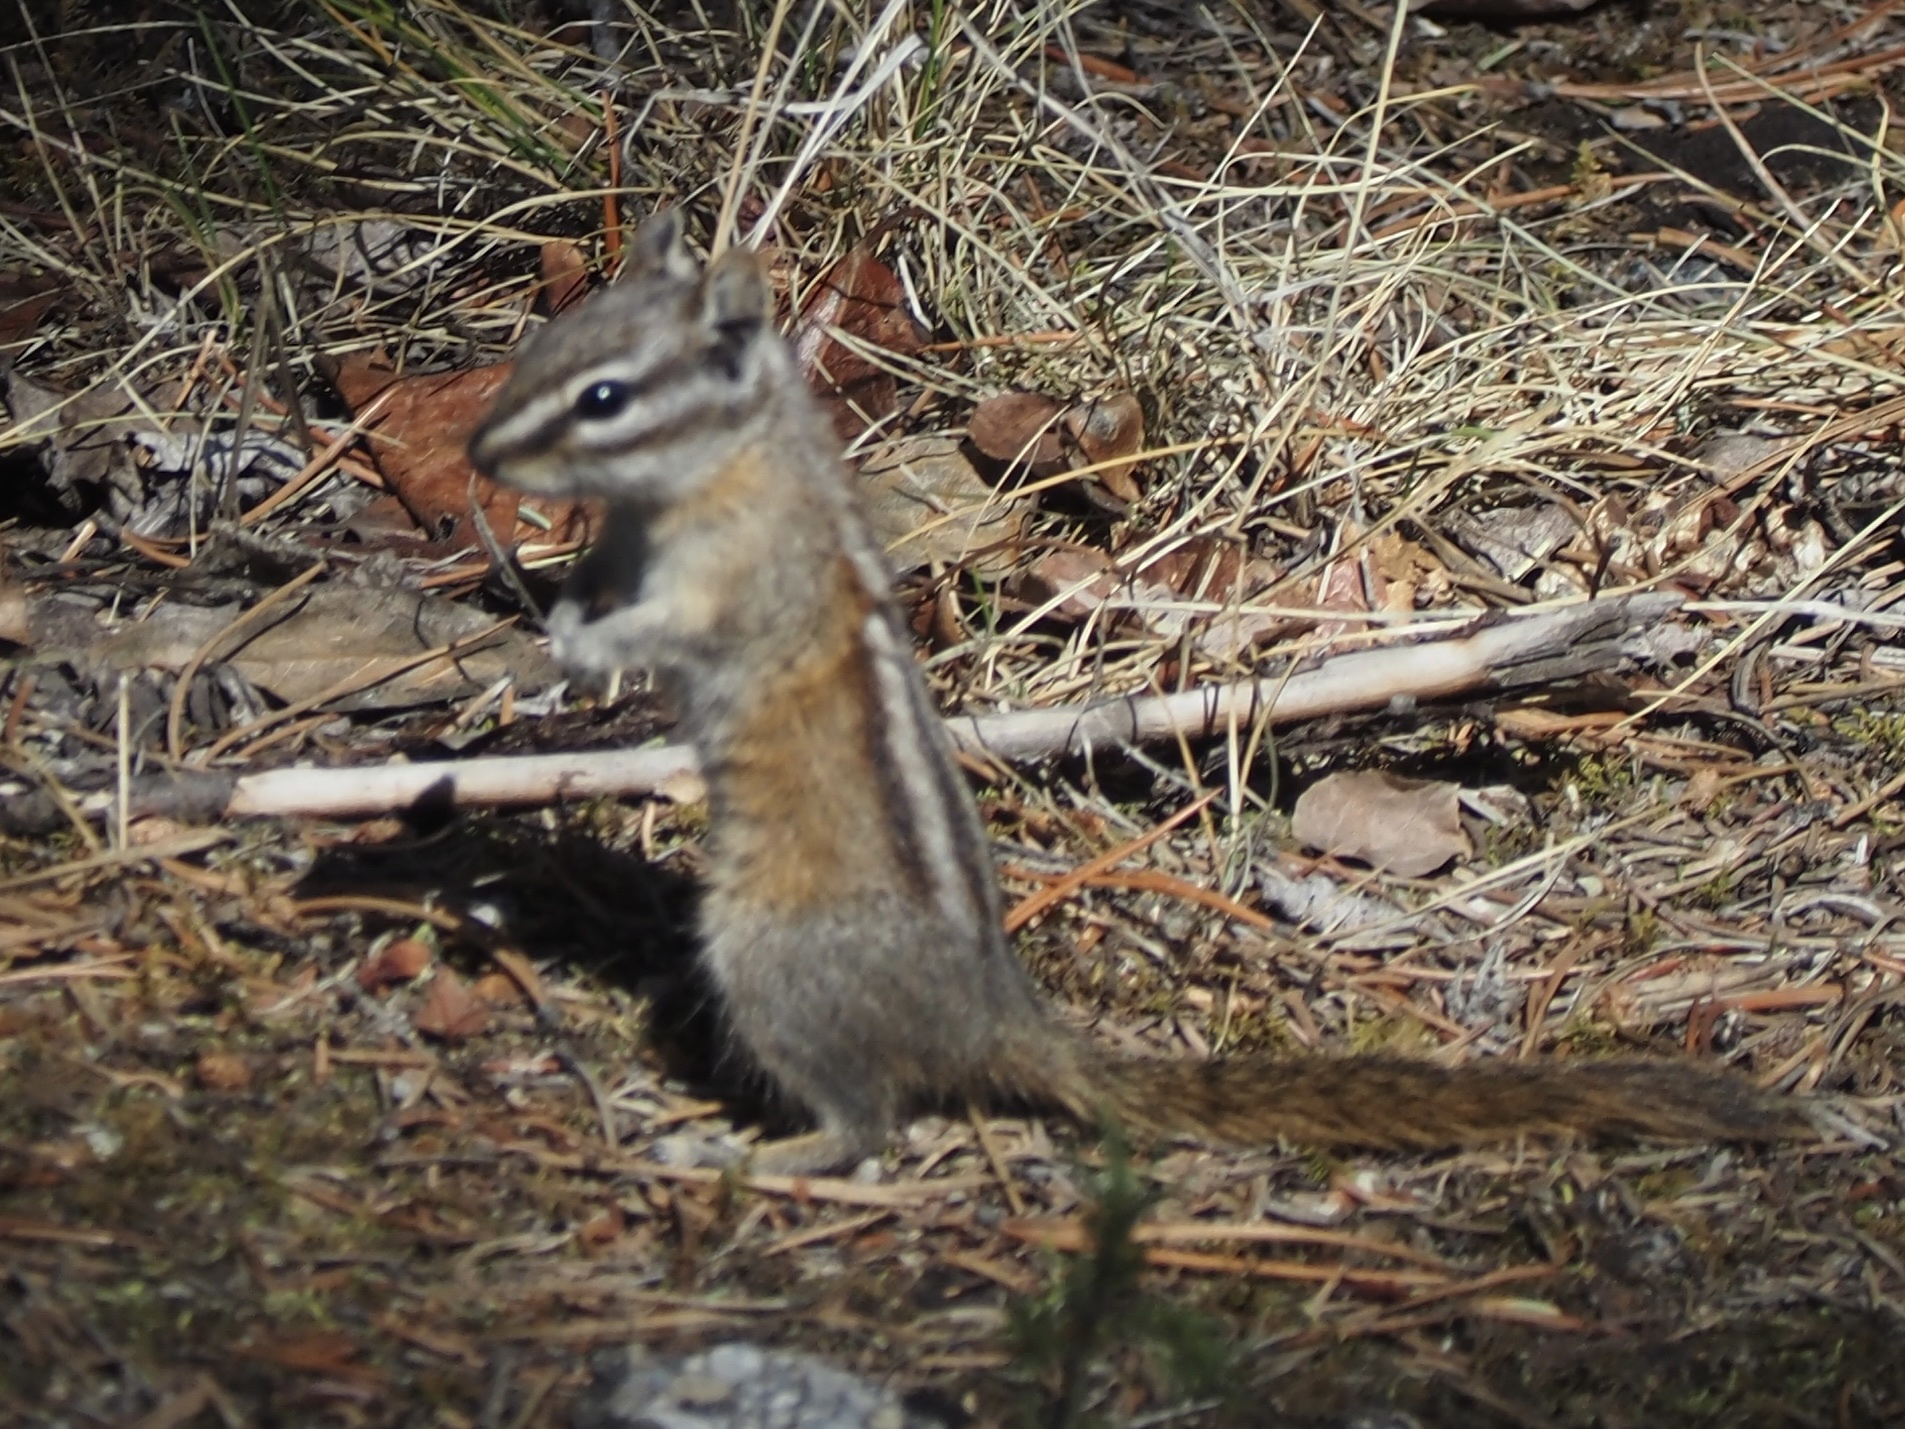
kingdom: Animalia
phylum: Chordata
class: Mammalia
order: Rodentia
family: Sciuridae
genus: Tamias
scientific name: Tamias minimus
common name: Least chipmunk
